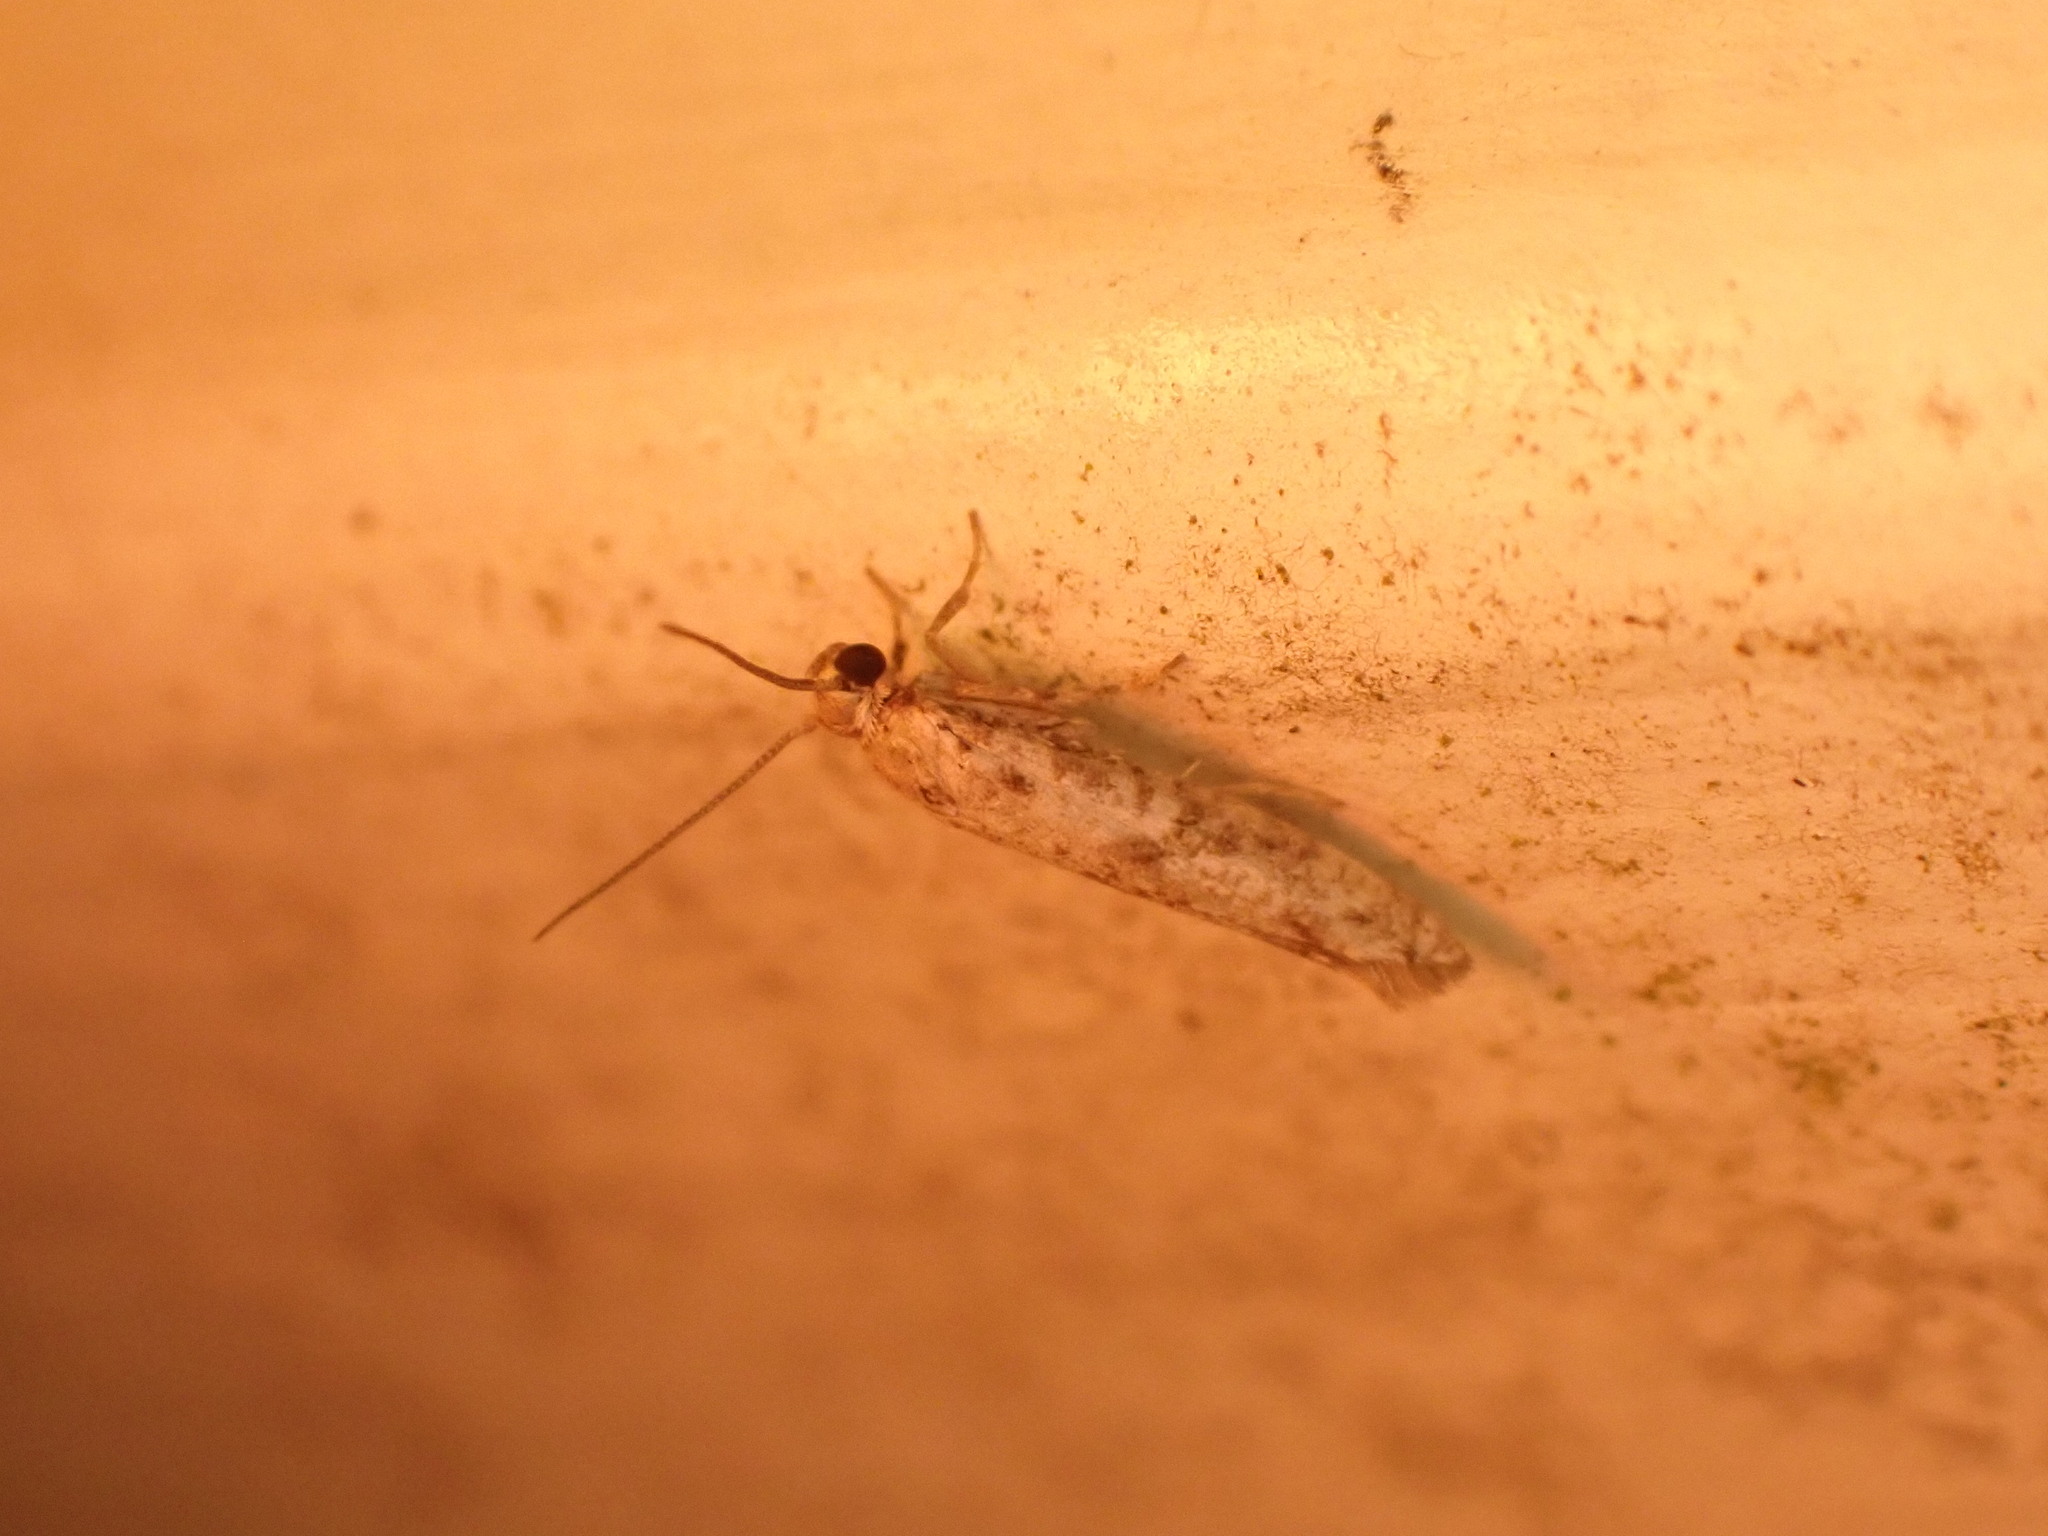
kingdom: Animalia
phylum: Arthropoda
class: Insecta
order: Lepidoptera
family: Praydidae
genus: Prays
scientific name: Prays nephelomima
